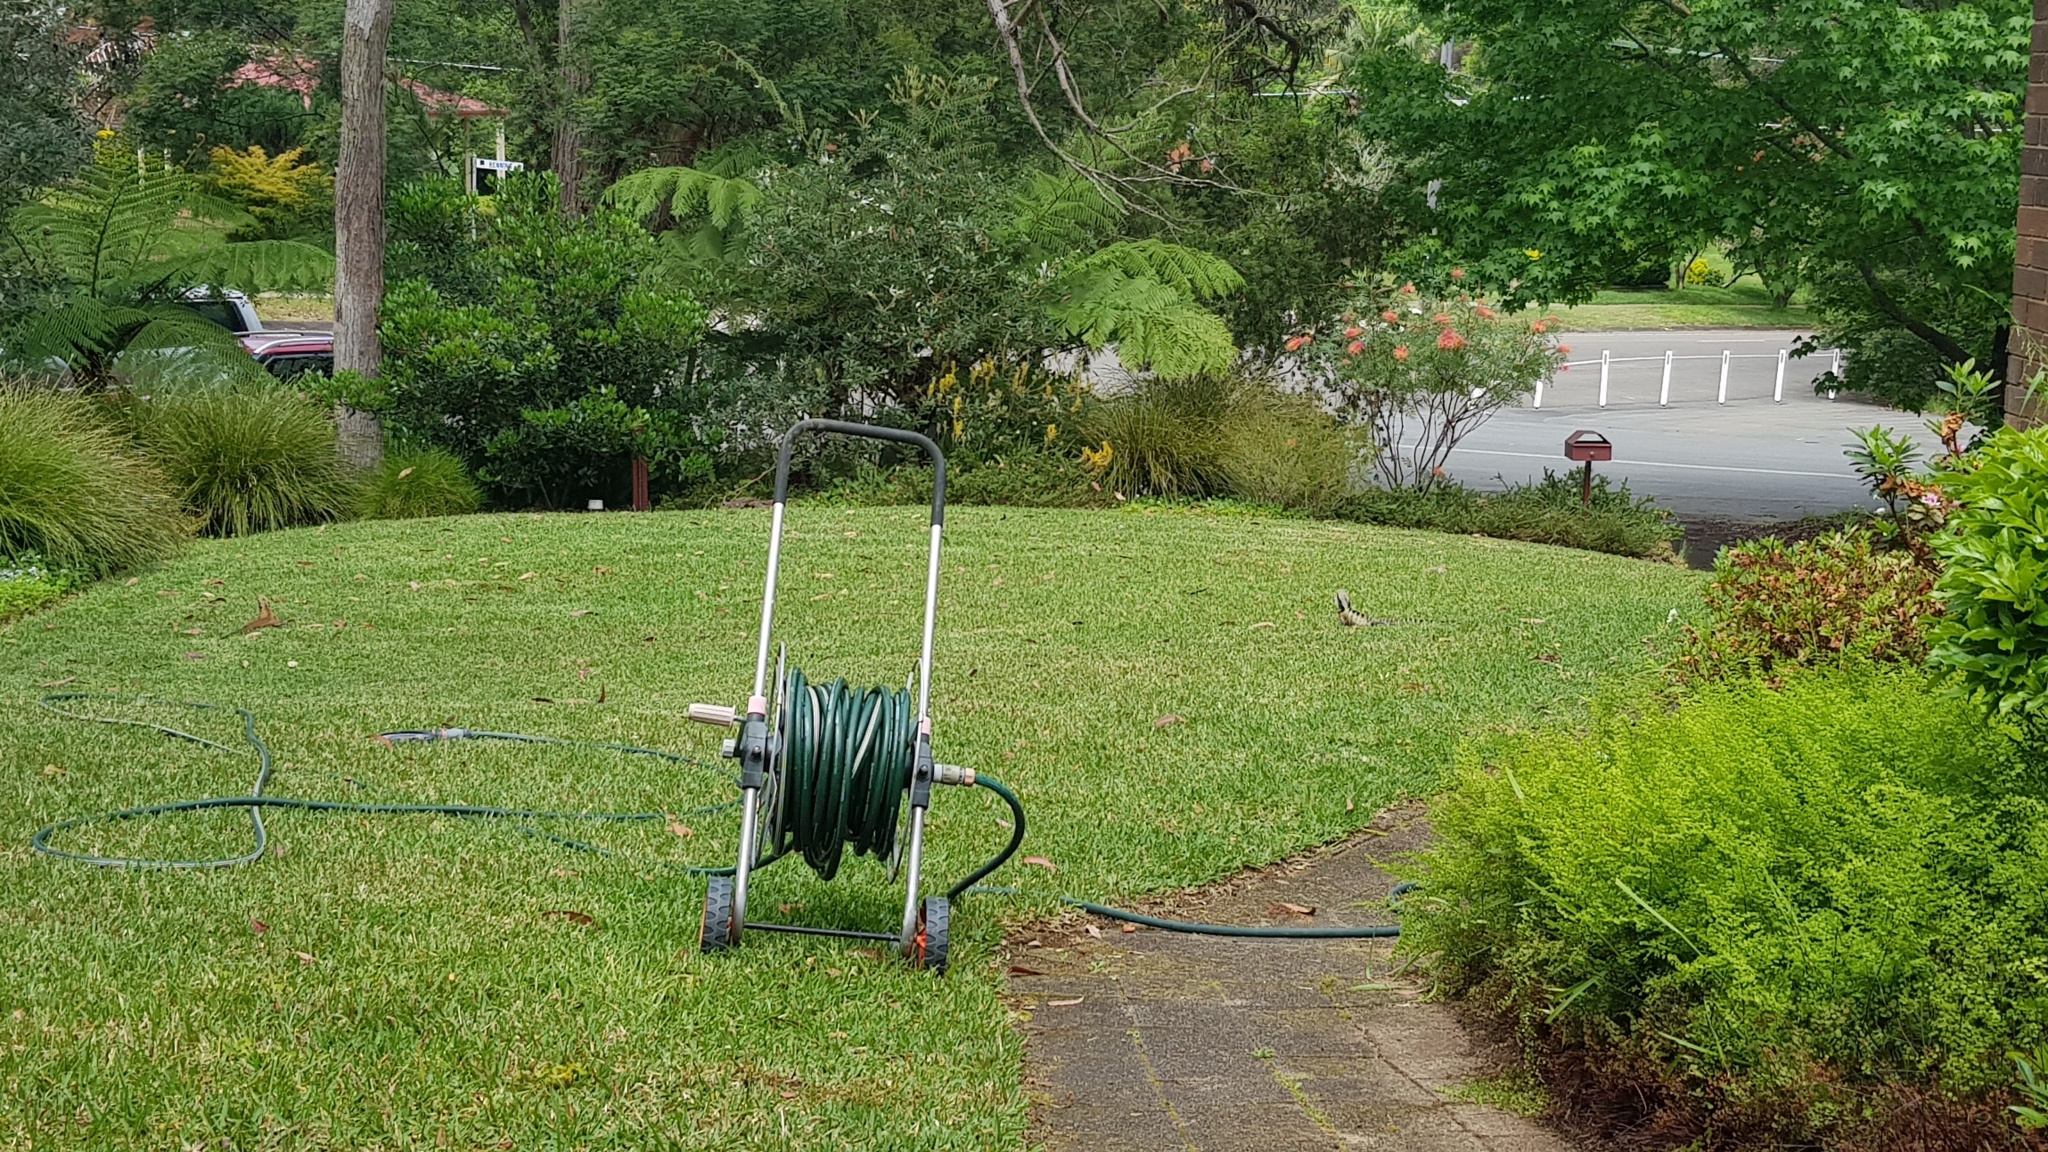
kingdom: Animalia
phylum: Chordata
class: Squamata
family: Agamidae
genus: Intellagama
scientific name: Intellagama lesueurii
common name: Eastern water dragon
